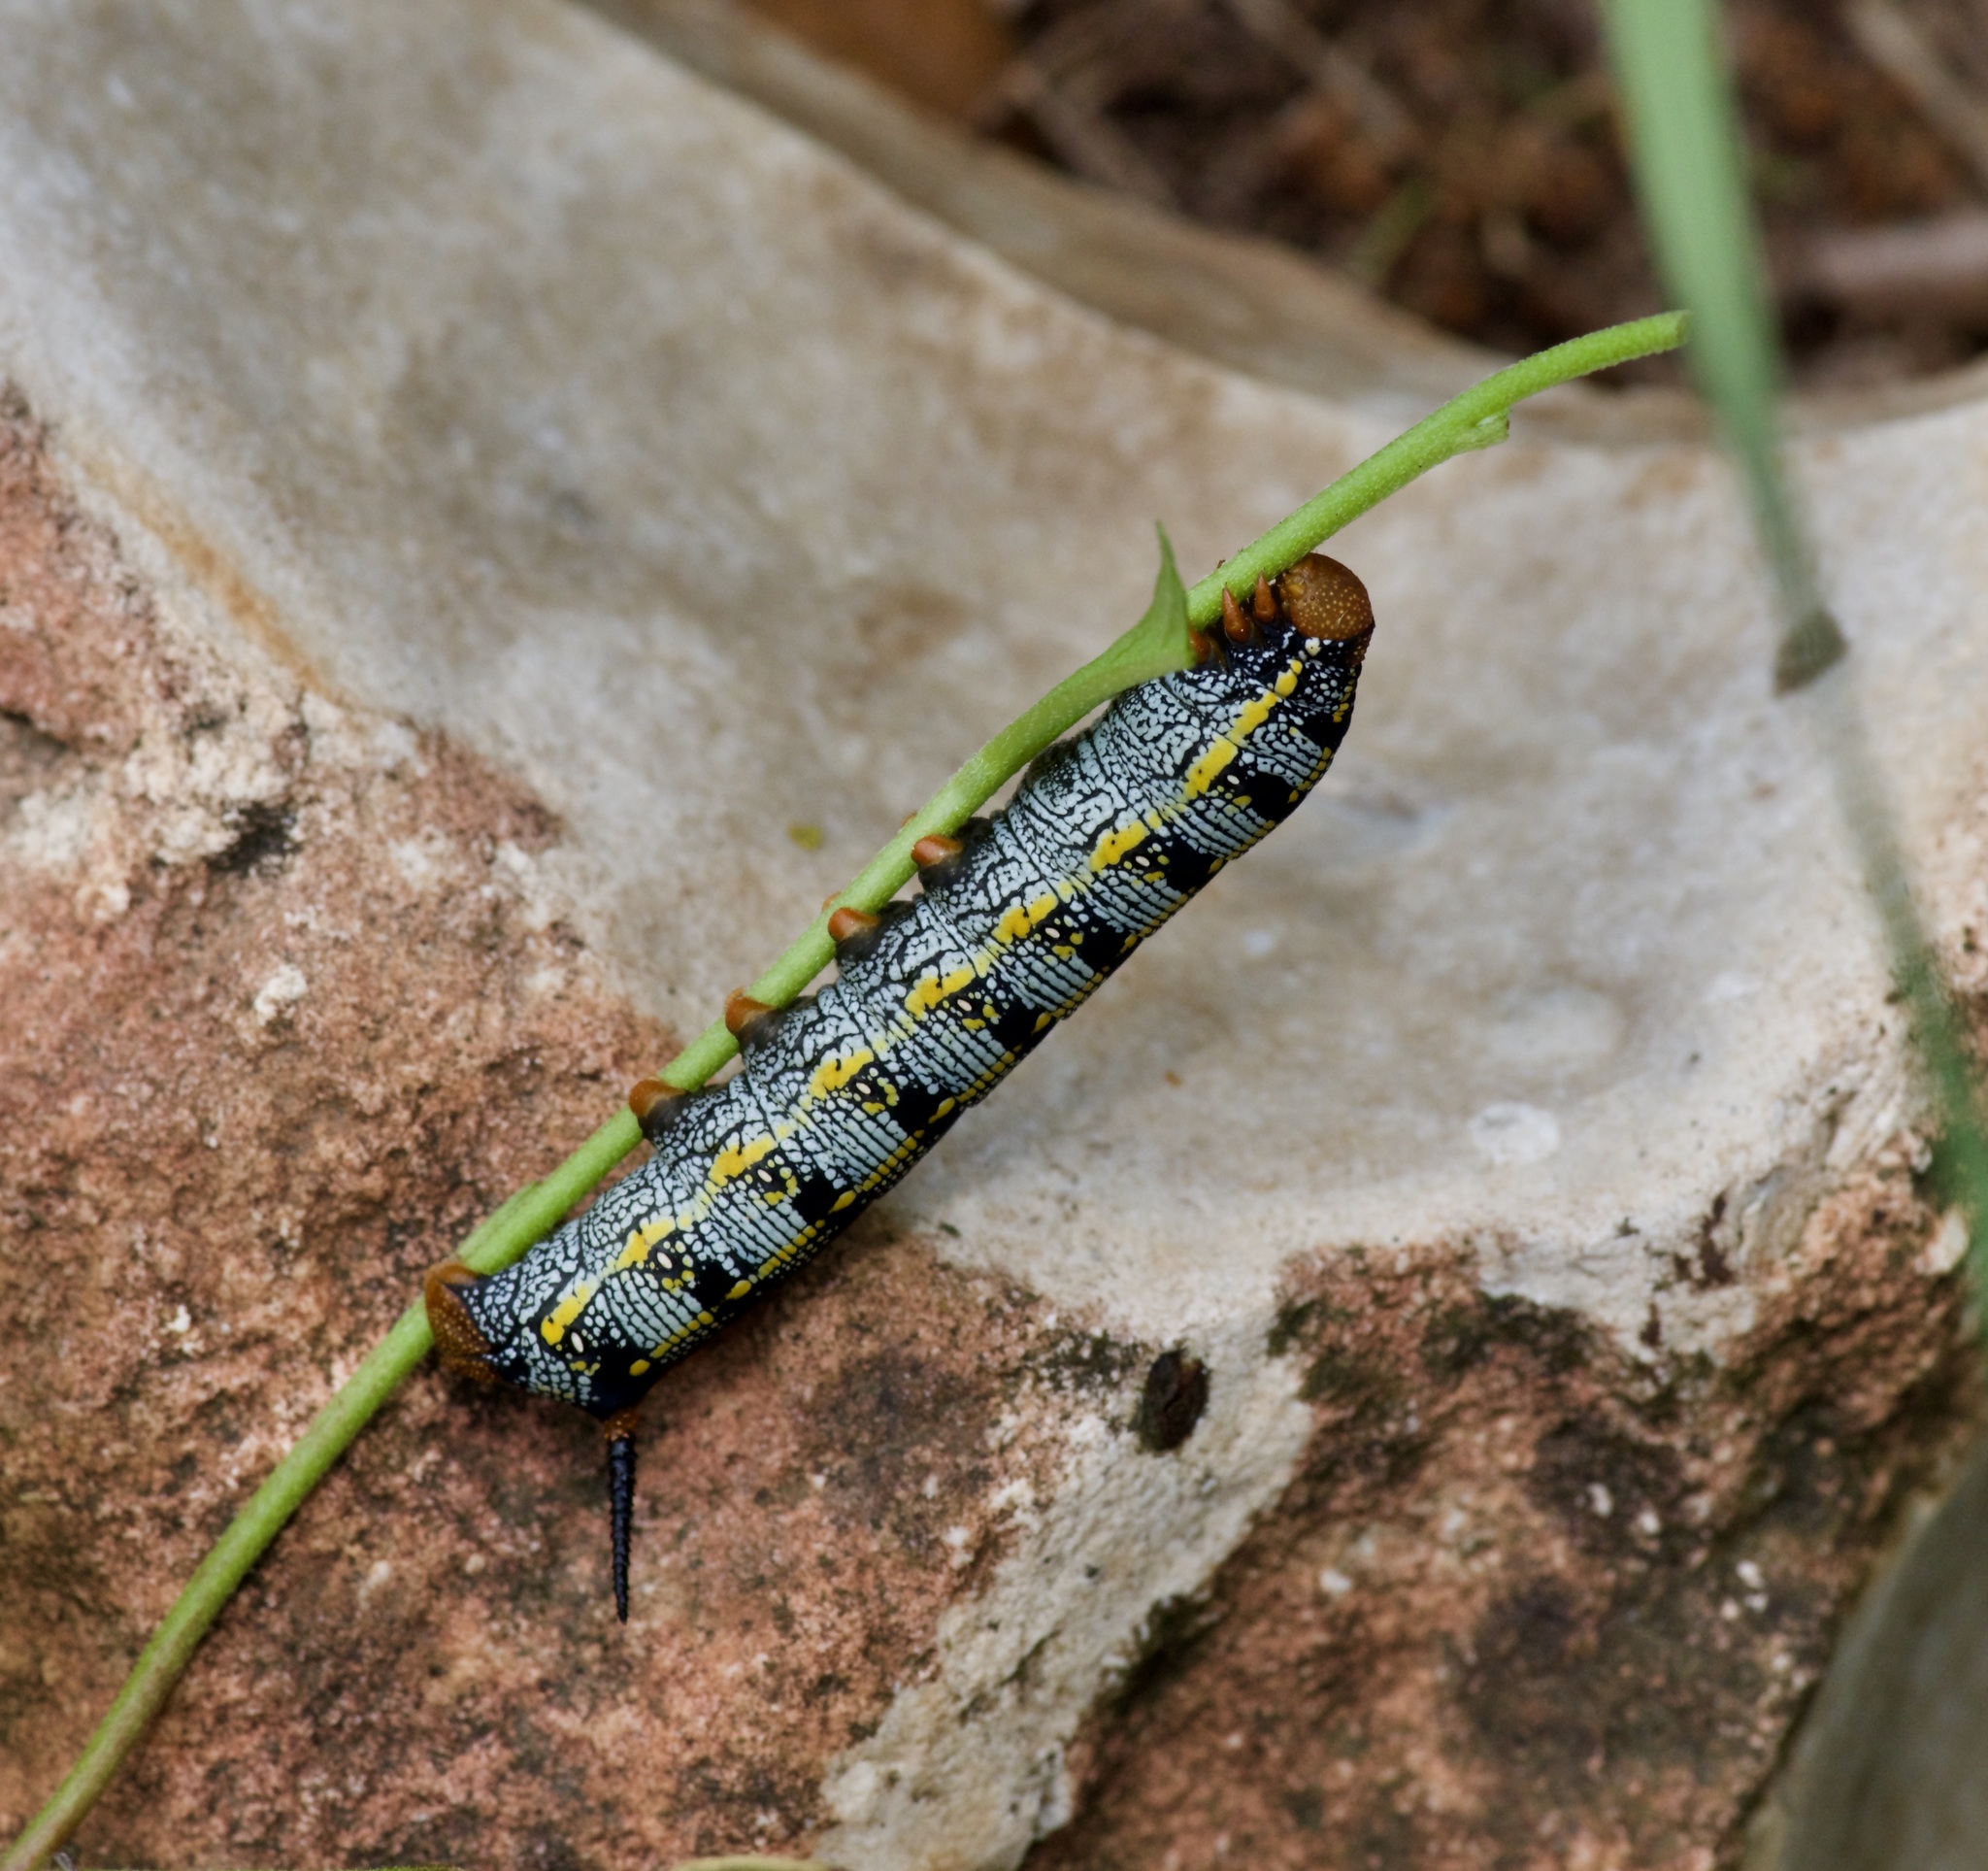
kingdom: Animalia
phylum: Arthropoda
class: Insecta
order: Lepidoptera
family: Sphingidae
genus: Hyles
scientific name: Hyles lineata
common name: White-lined sphinx
